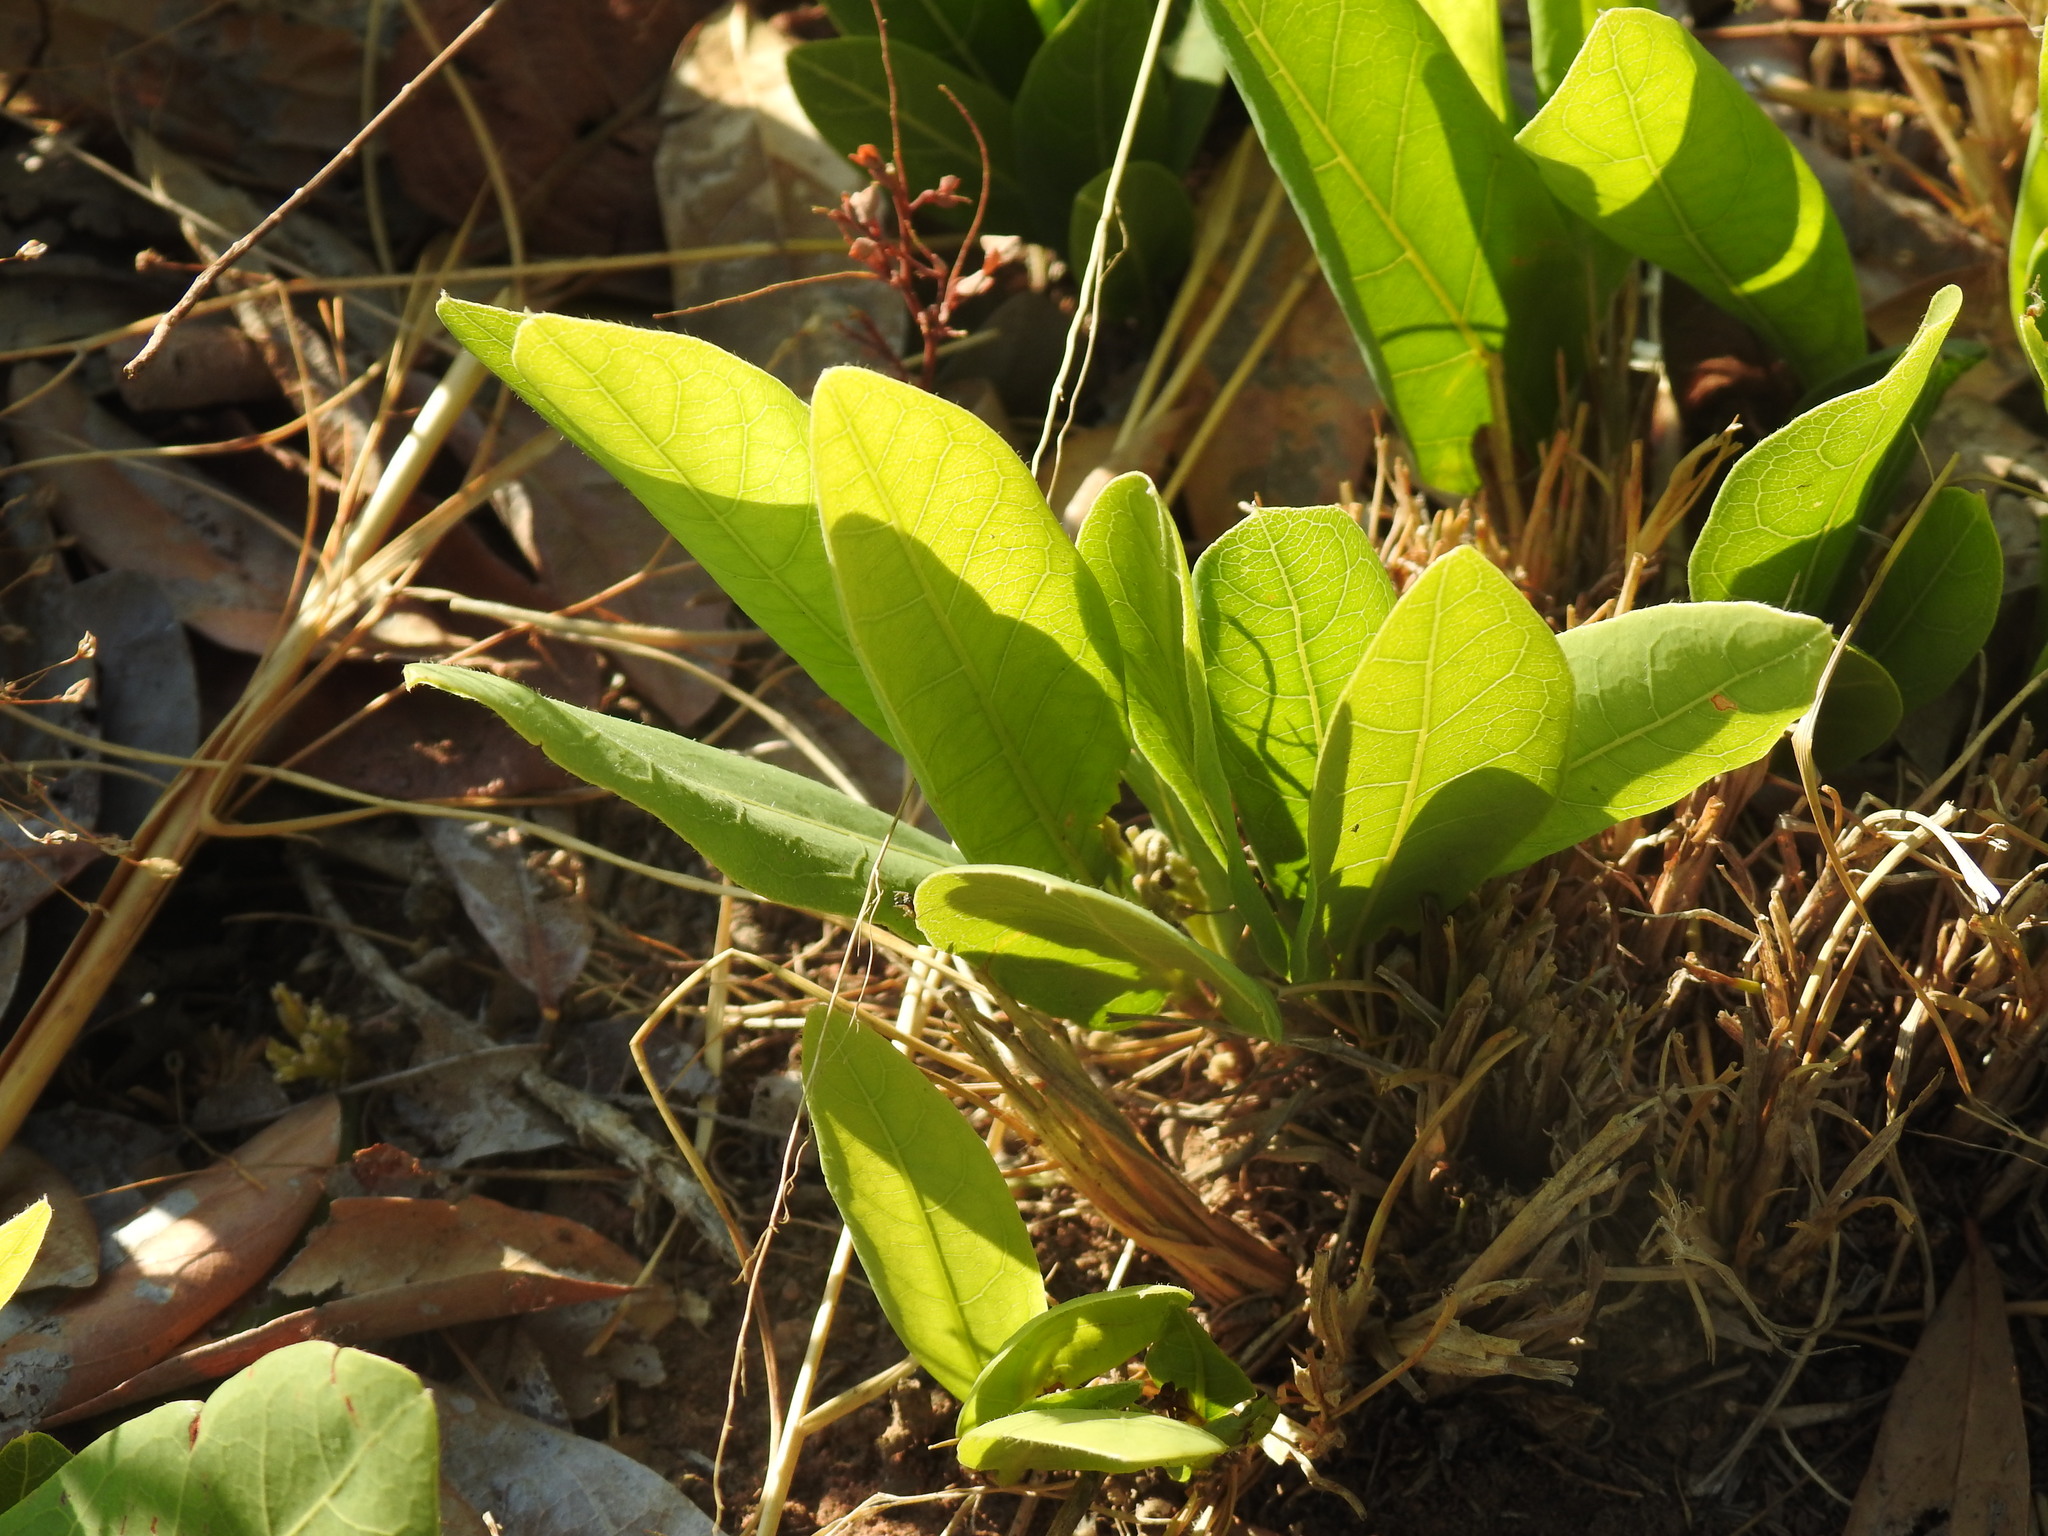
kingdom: Plantae
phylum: Tracheophyta
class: Magnoliopsida
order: Gentianales
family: Rubiaceae
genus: Bridsonia
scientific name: Bridsonia chamaedendrum
